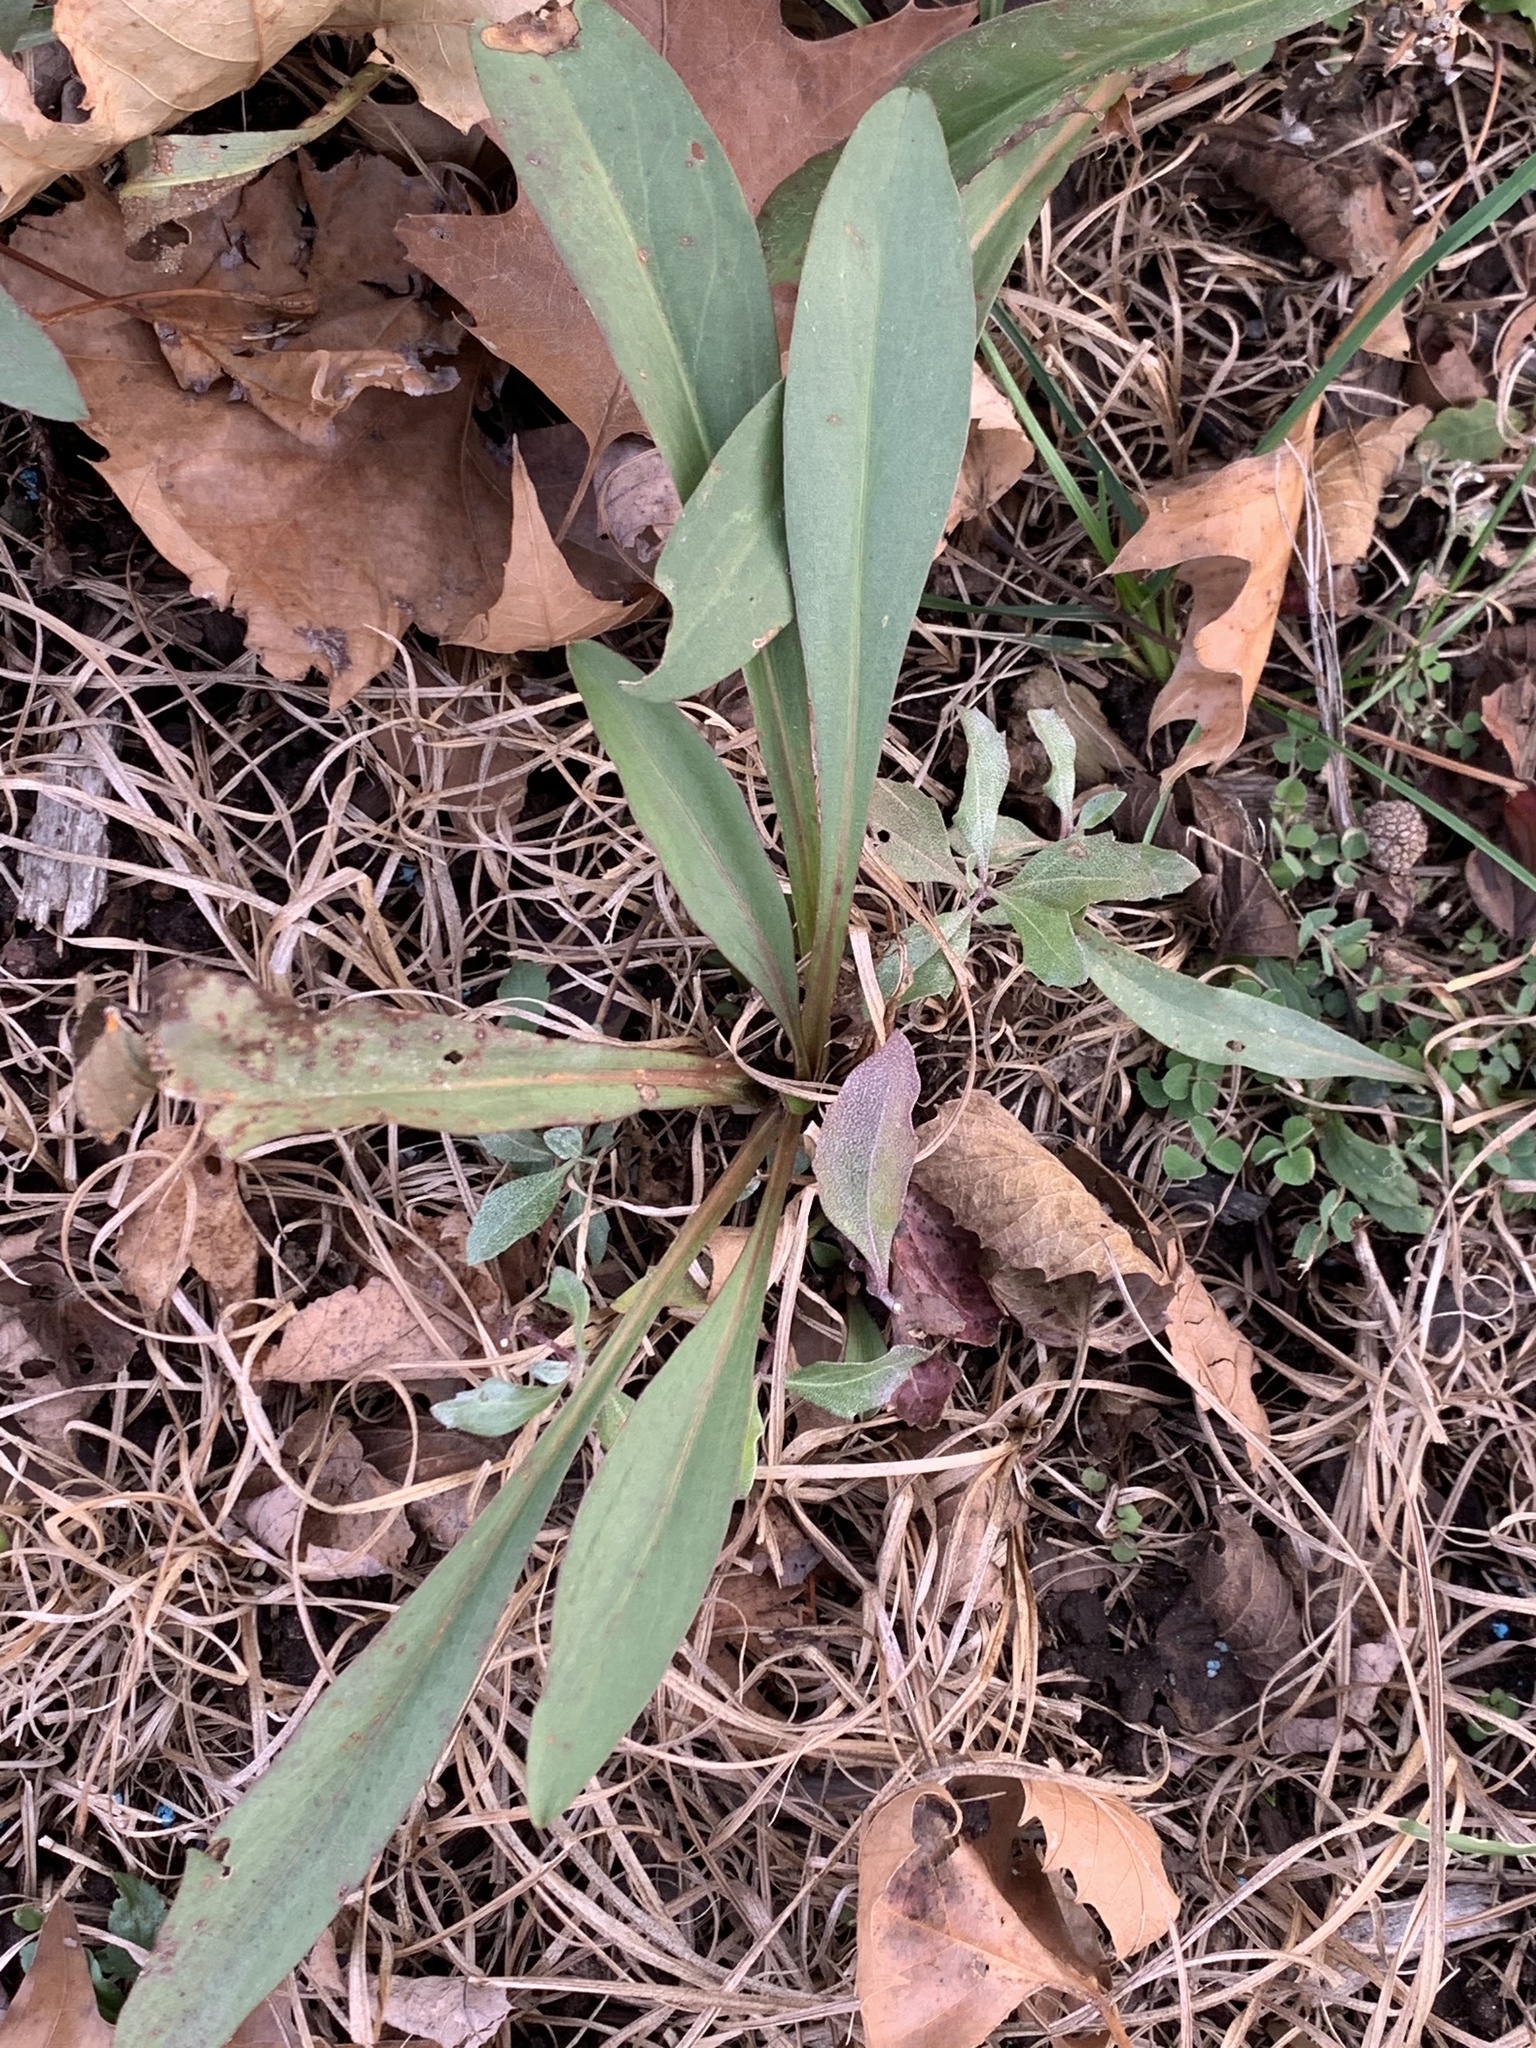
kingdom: Plantae
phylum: Tracheophyta
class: Magnoliopsida
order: Asterales
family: Asteraceae
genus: Solidago
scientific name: Solidago sempervirens
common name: Salt-marsh goldenrod
